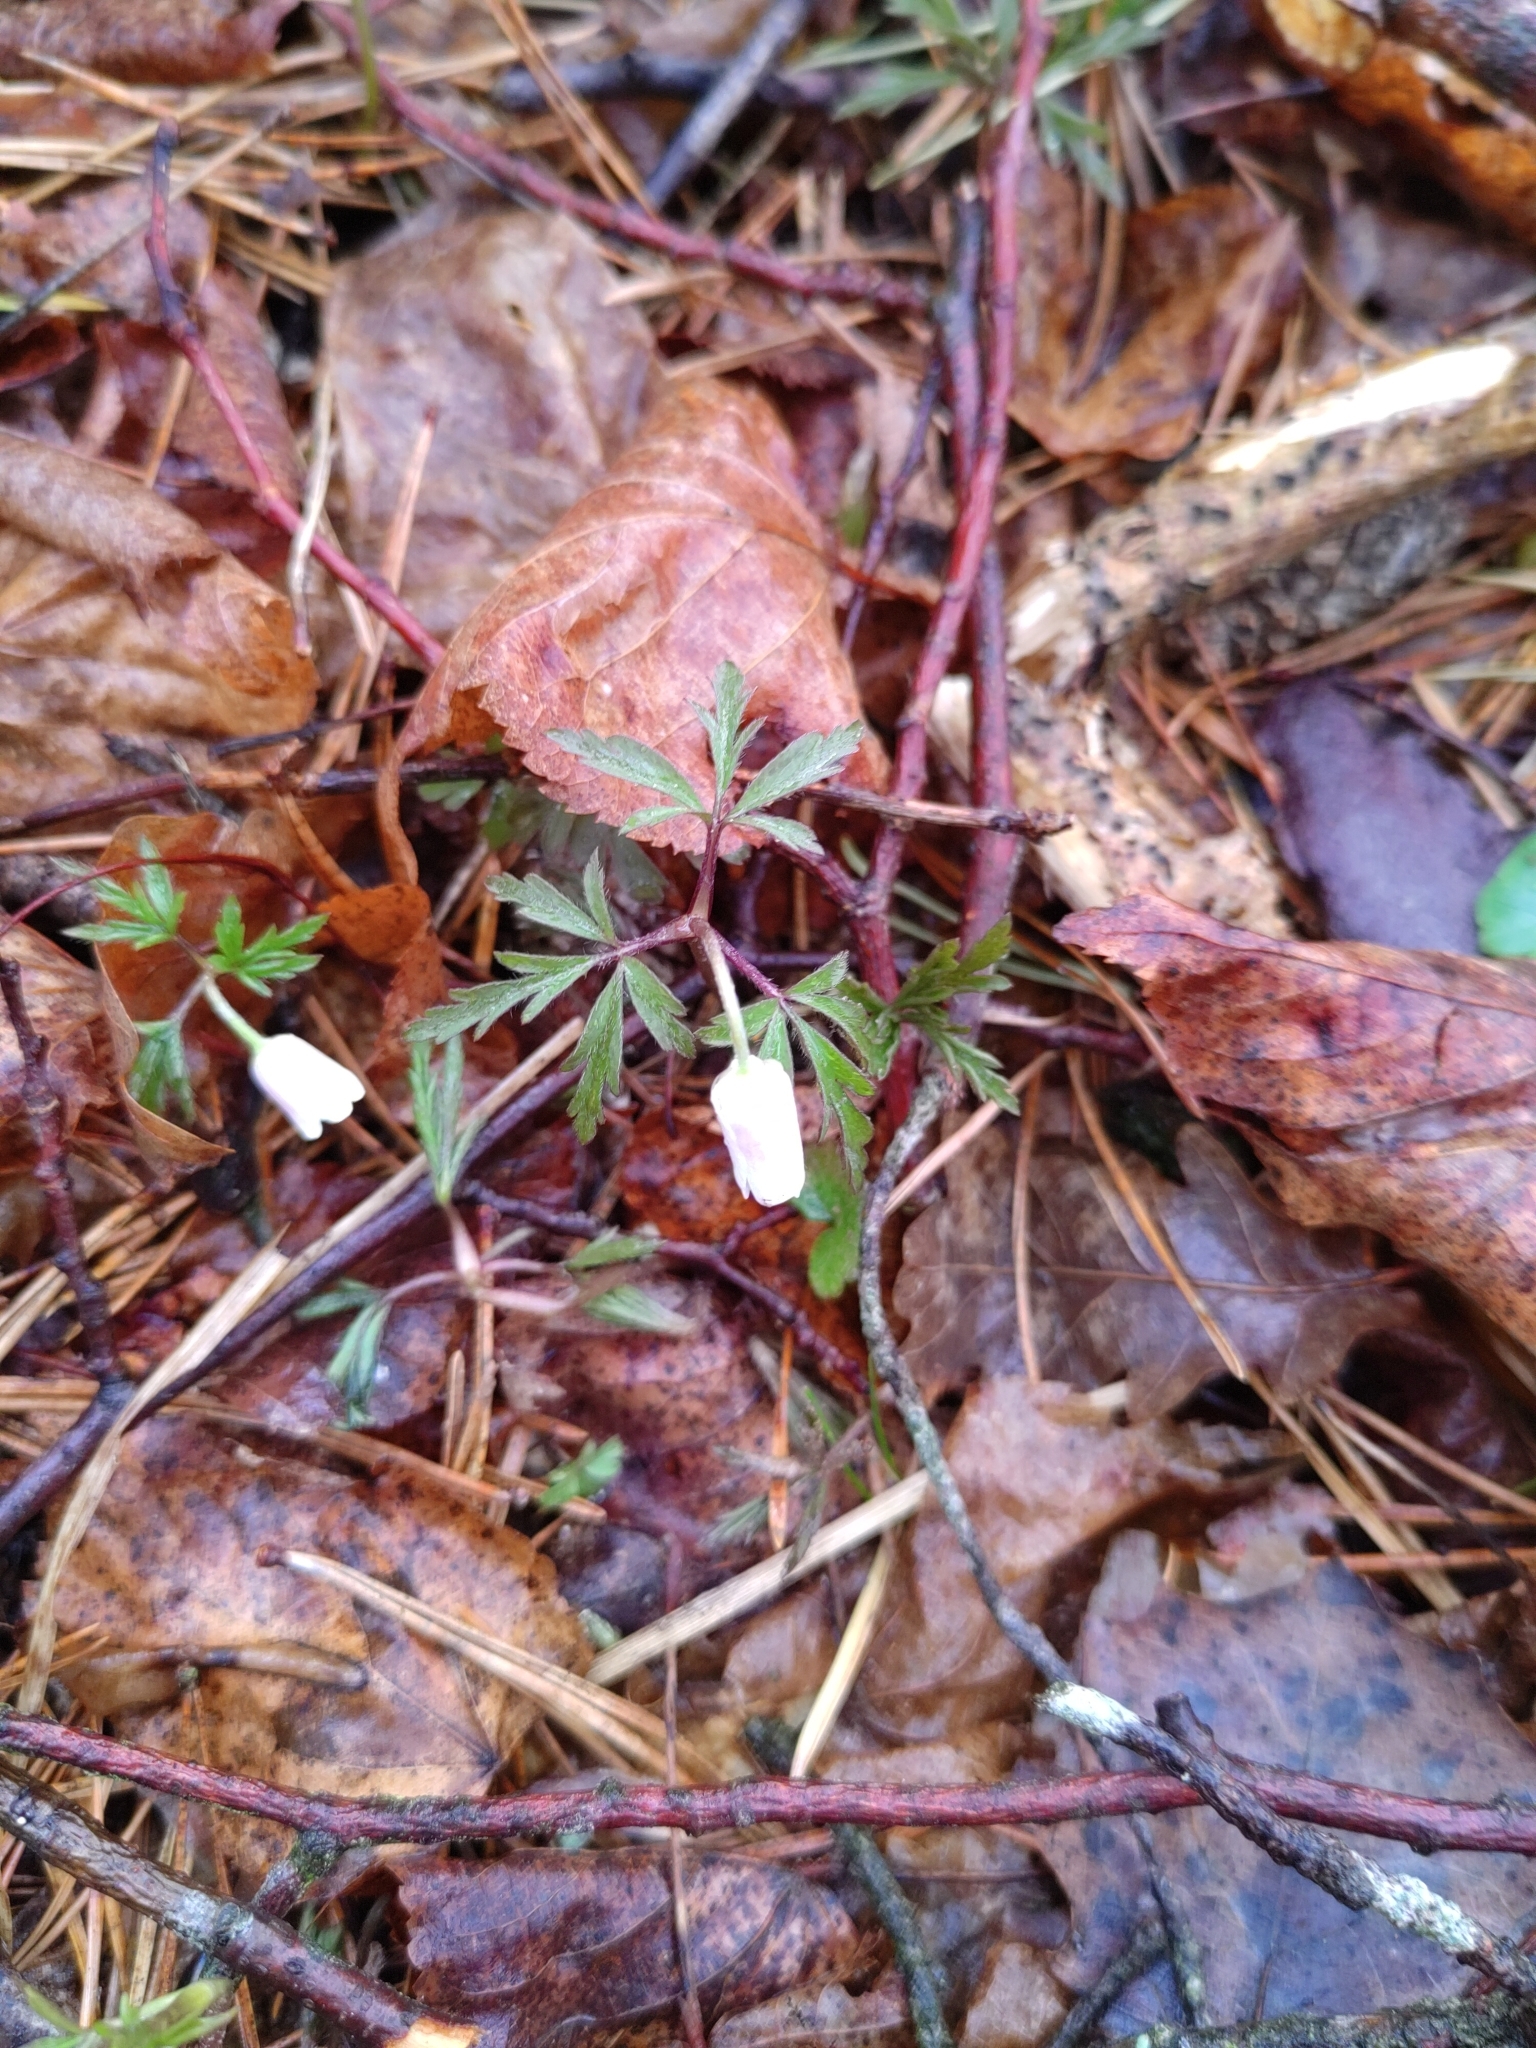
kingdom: Plantae
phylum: Tracheophyta
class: Magnoliopsida
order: Ranunculales
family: Ranunculaceae
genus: Anemone
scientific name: Anemone nemorosa
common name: Wood anemone
